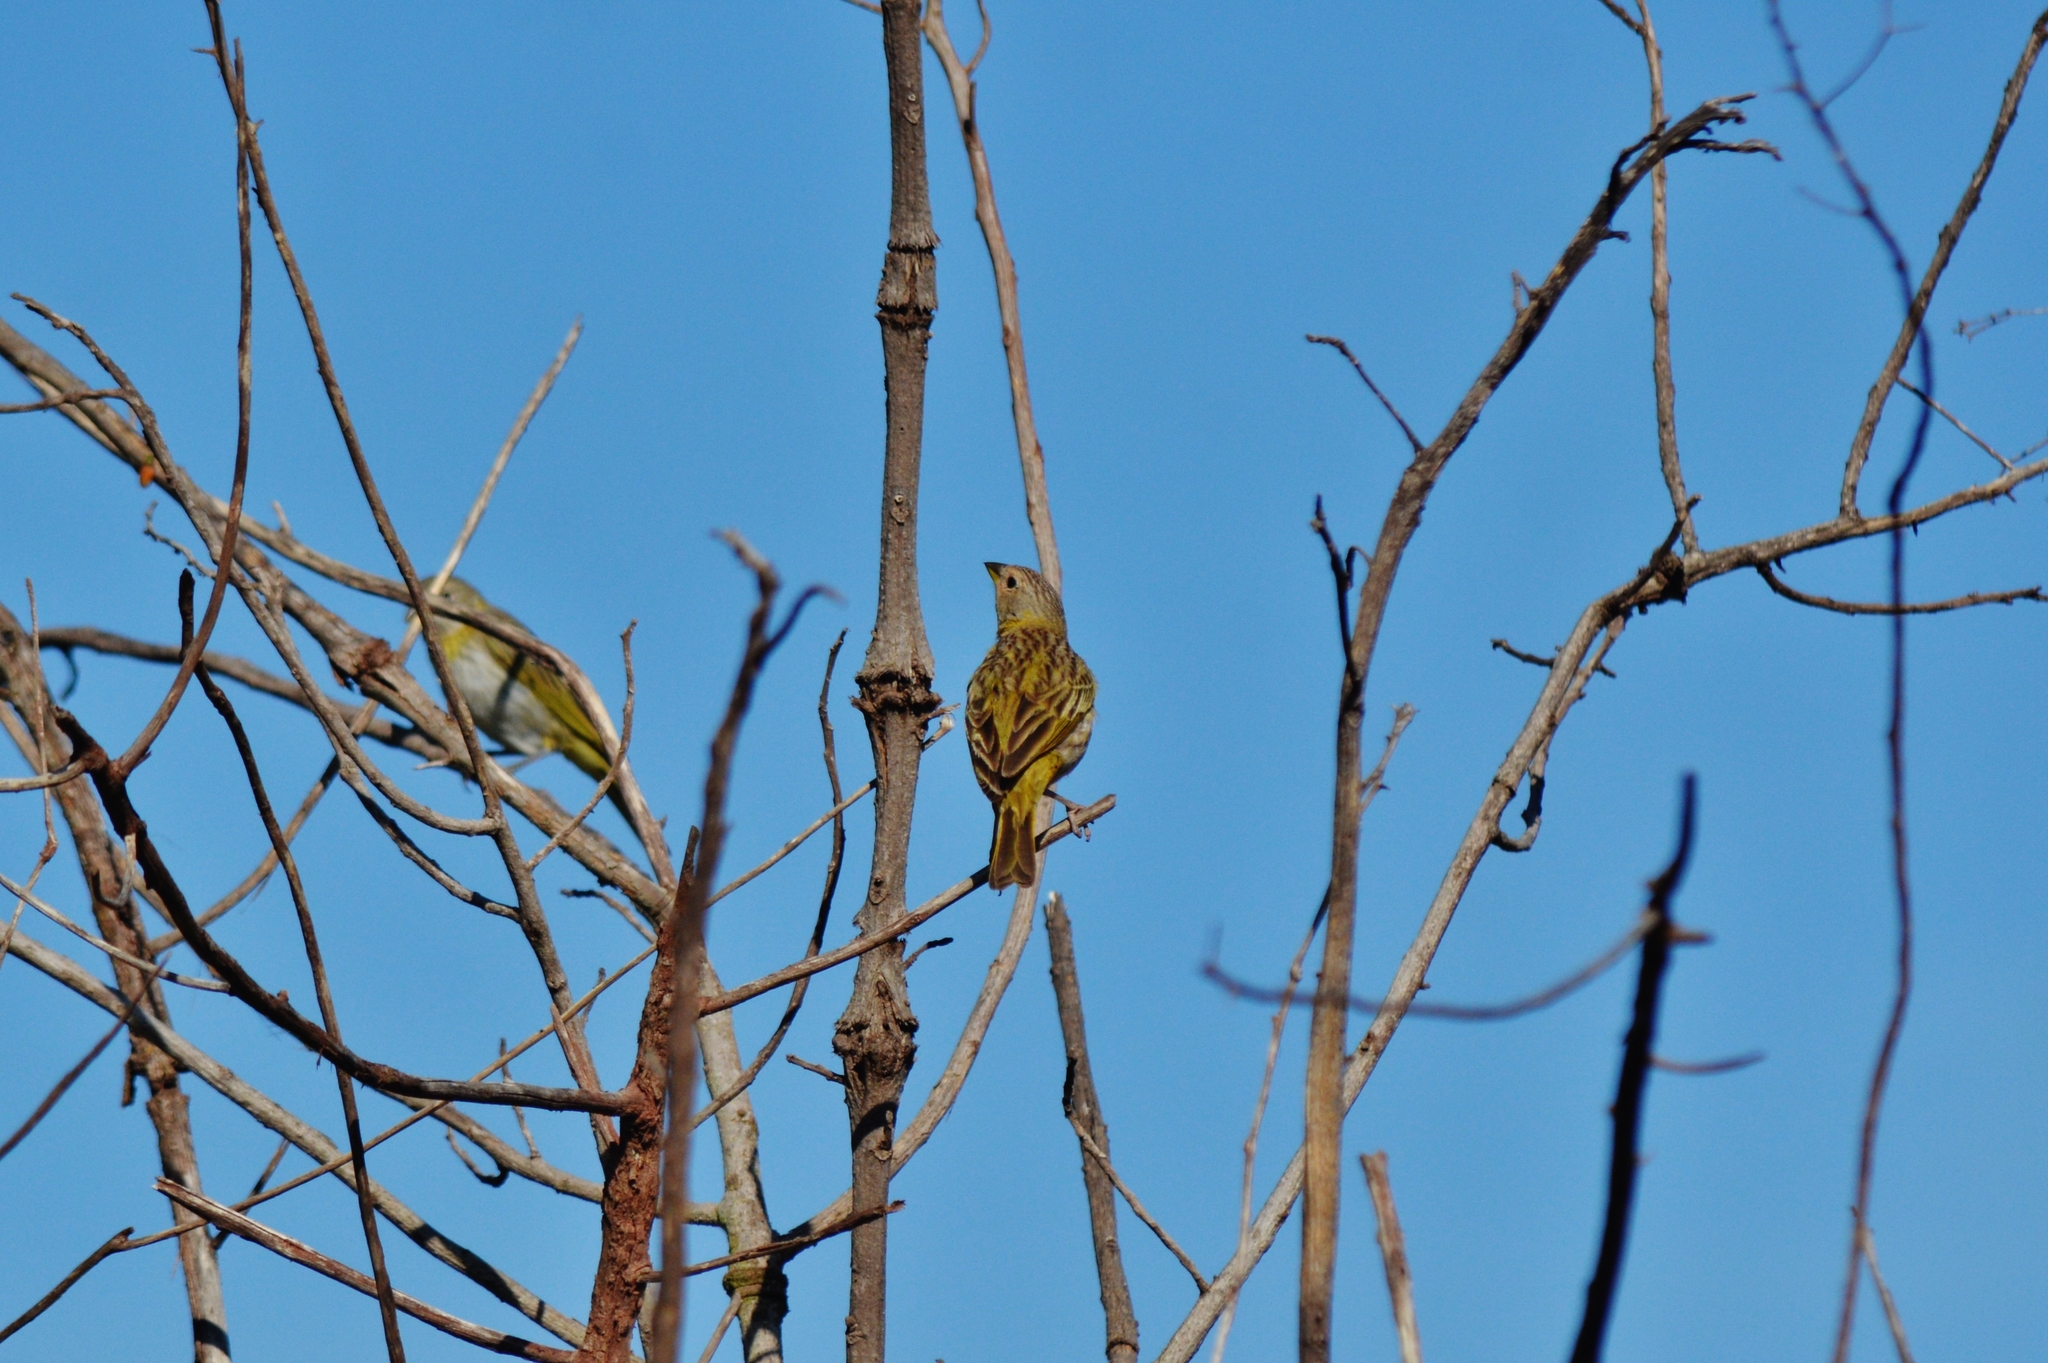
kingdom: Animalia
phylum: Chordata
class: Aves
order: Passeriformes
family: Thraupidae
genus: Sicalis
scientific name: Sicalis flaveola
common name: Saffron finch
